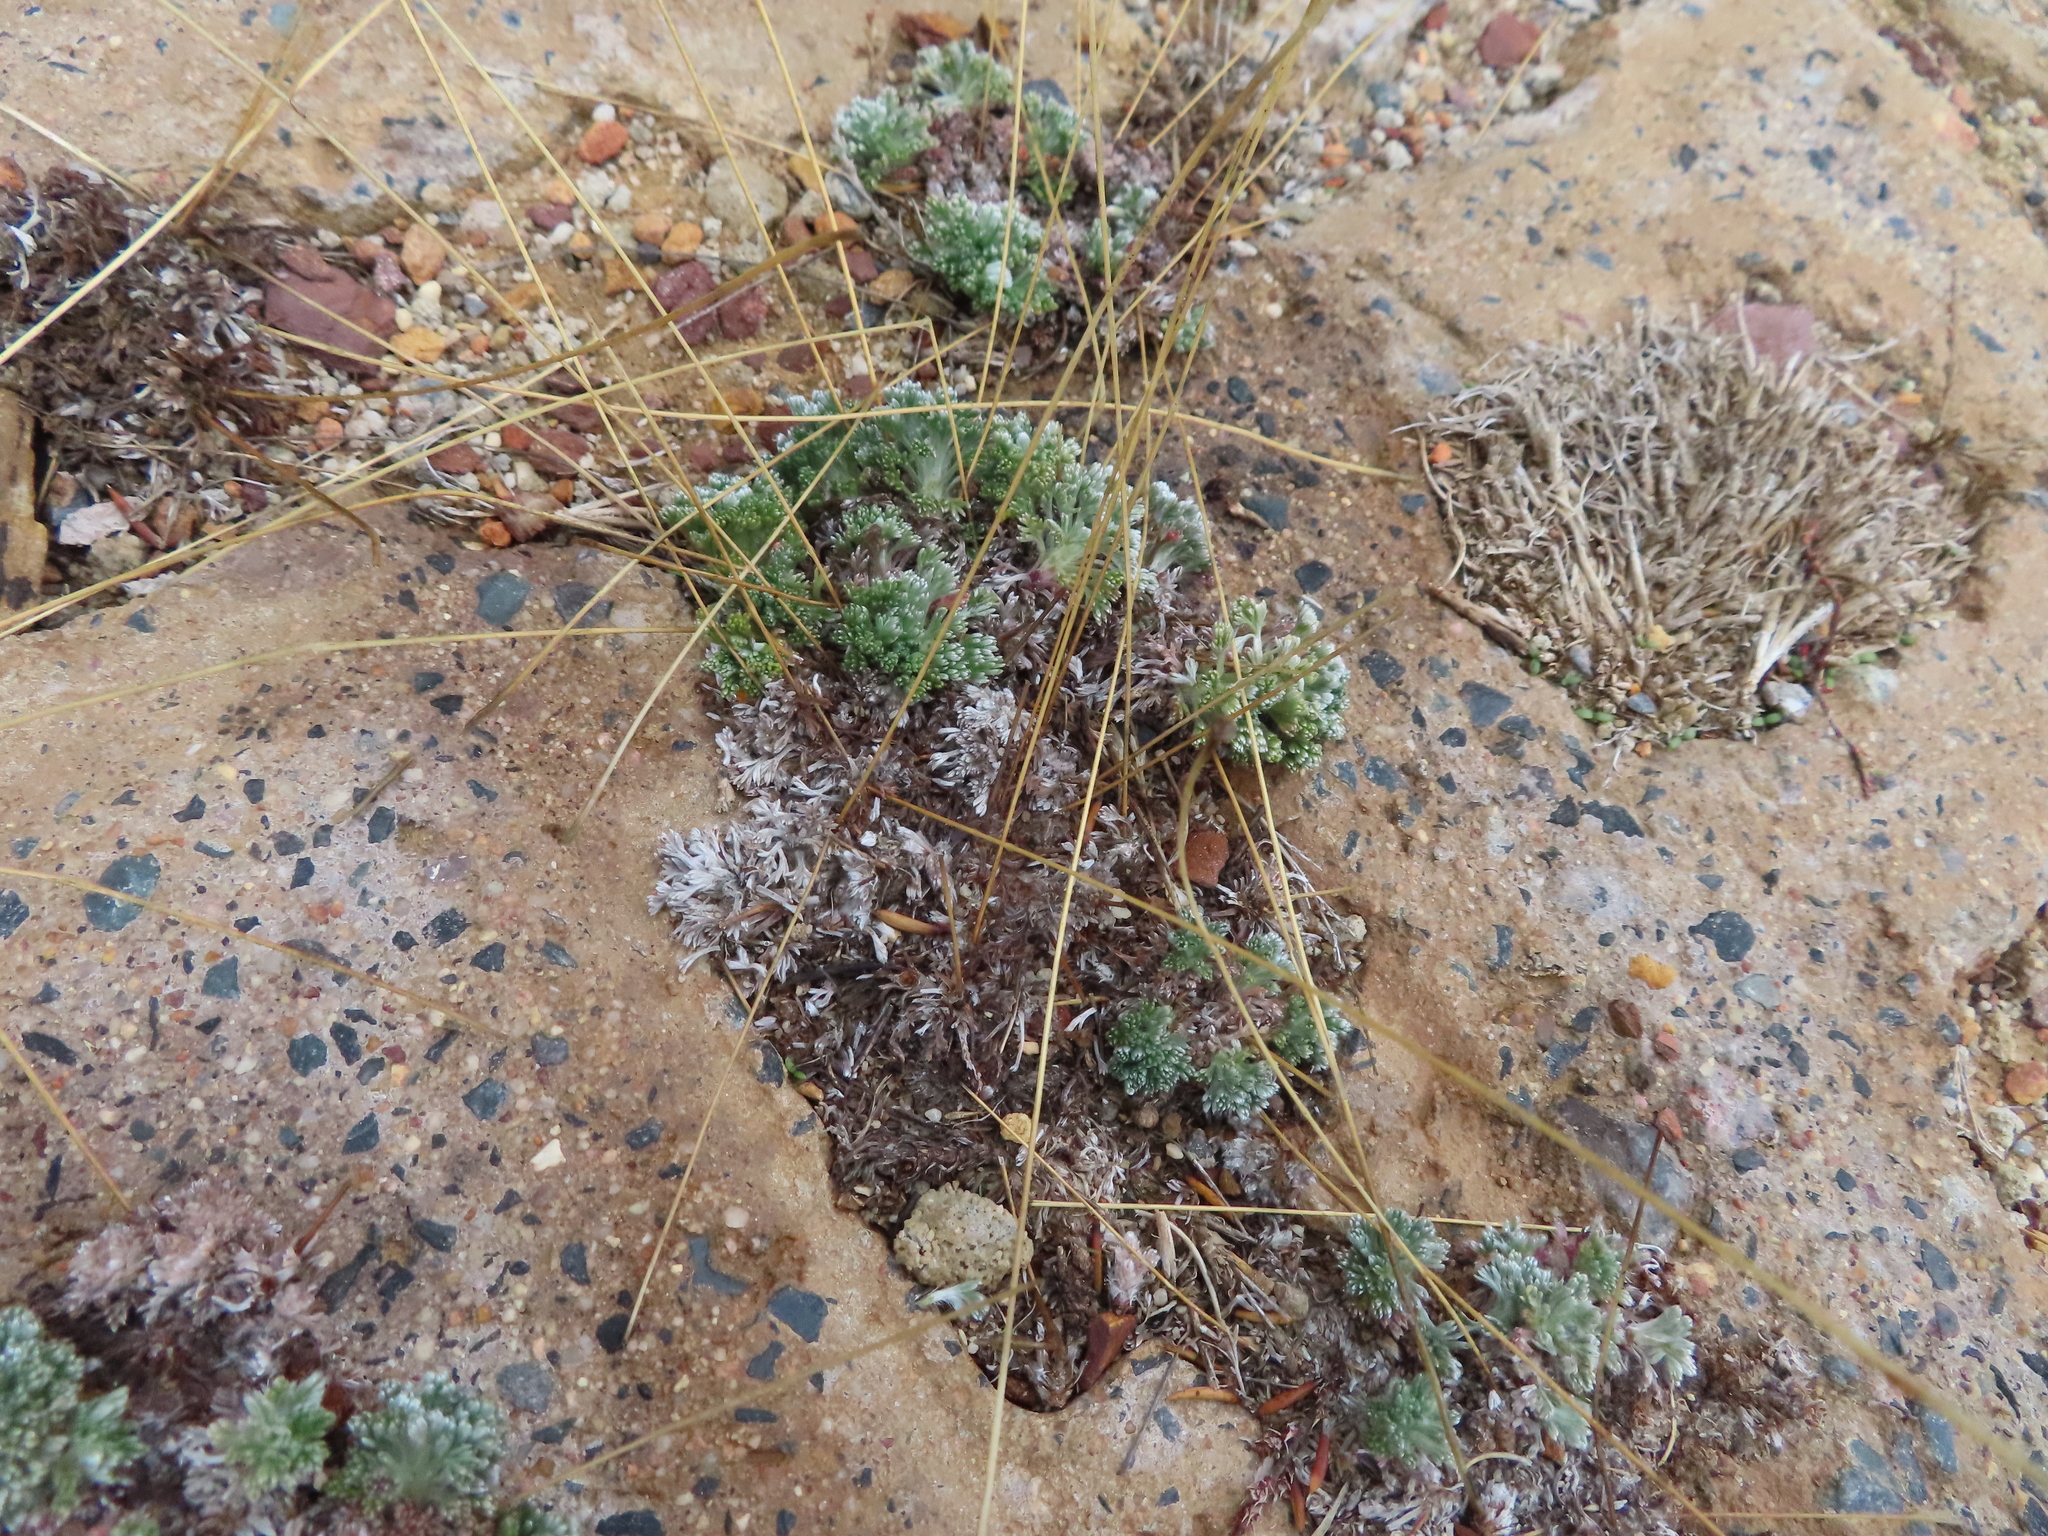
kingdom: Plantae
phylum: Tracheophyta
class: Magnoliopsida
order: Asterales
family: Asteraceae
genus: Cotula
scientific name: Cotula sericea
